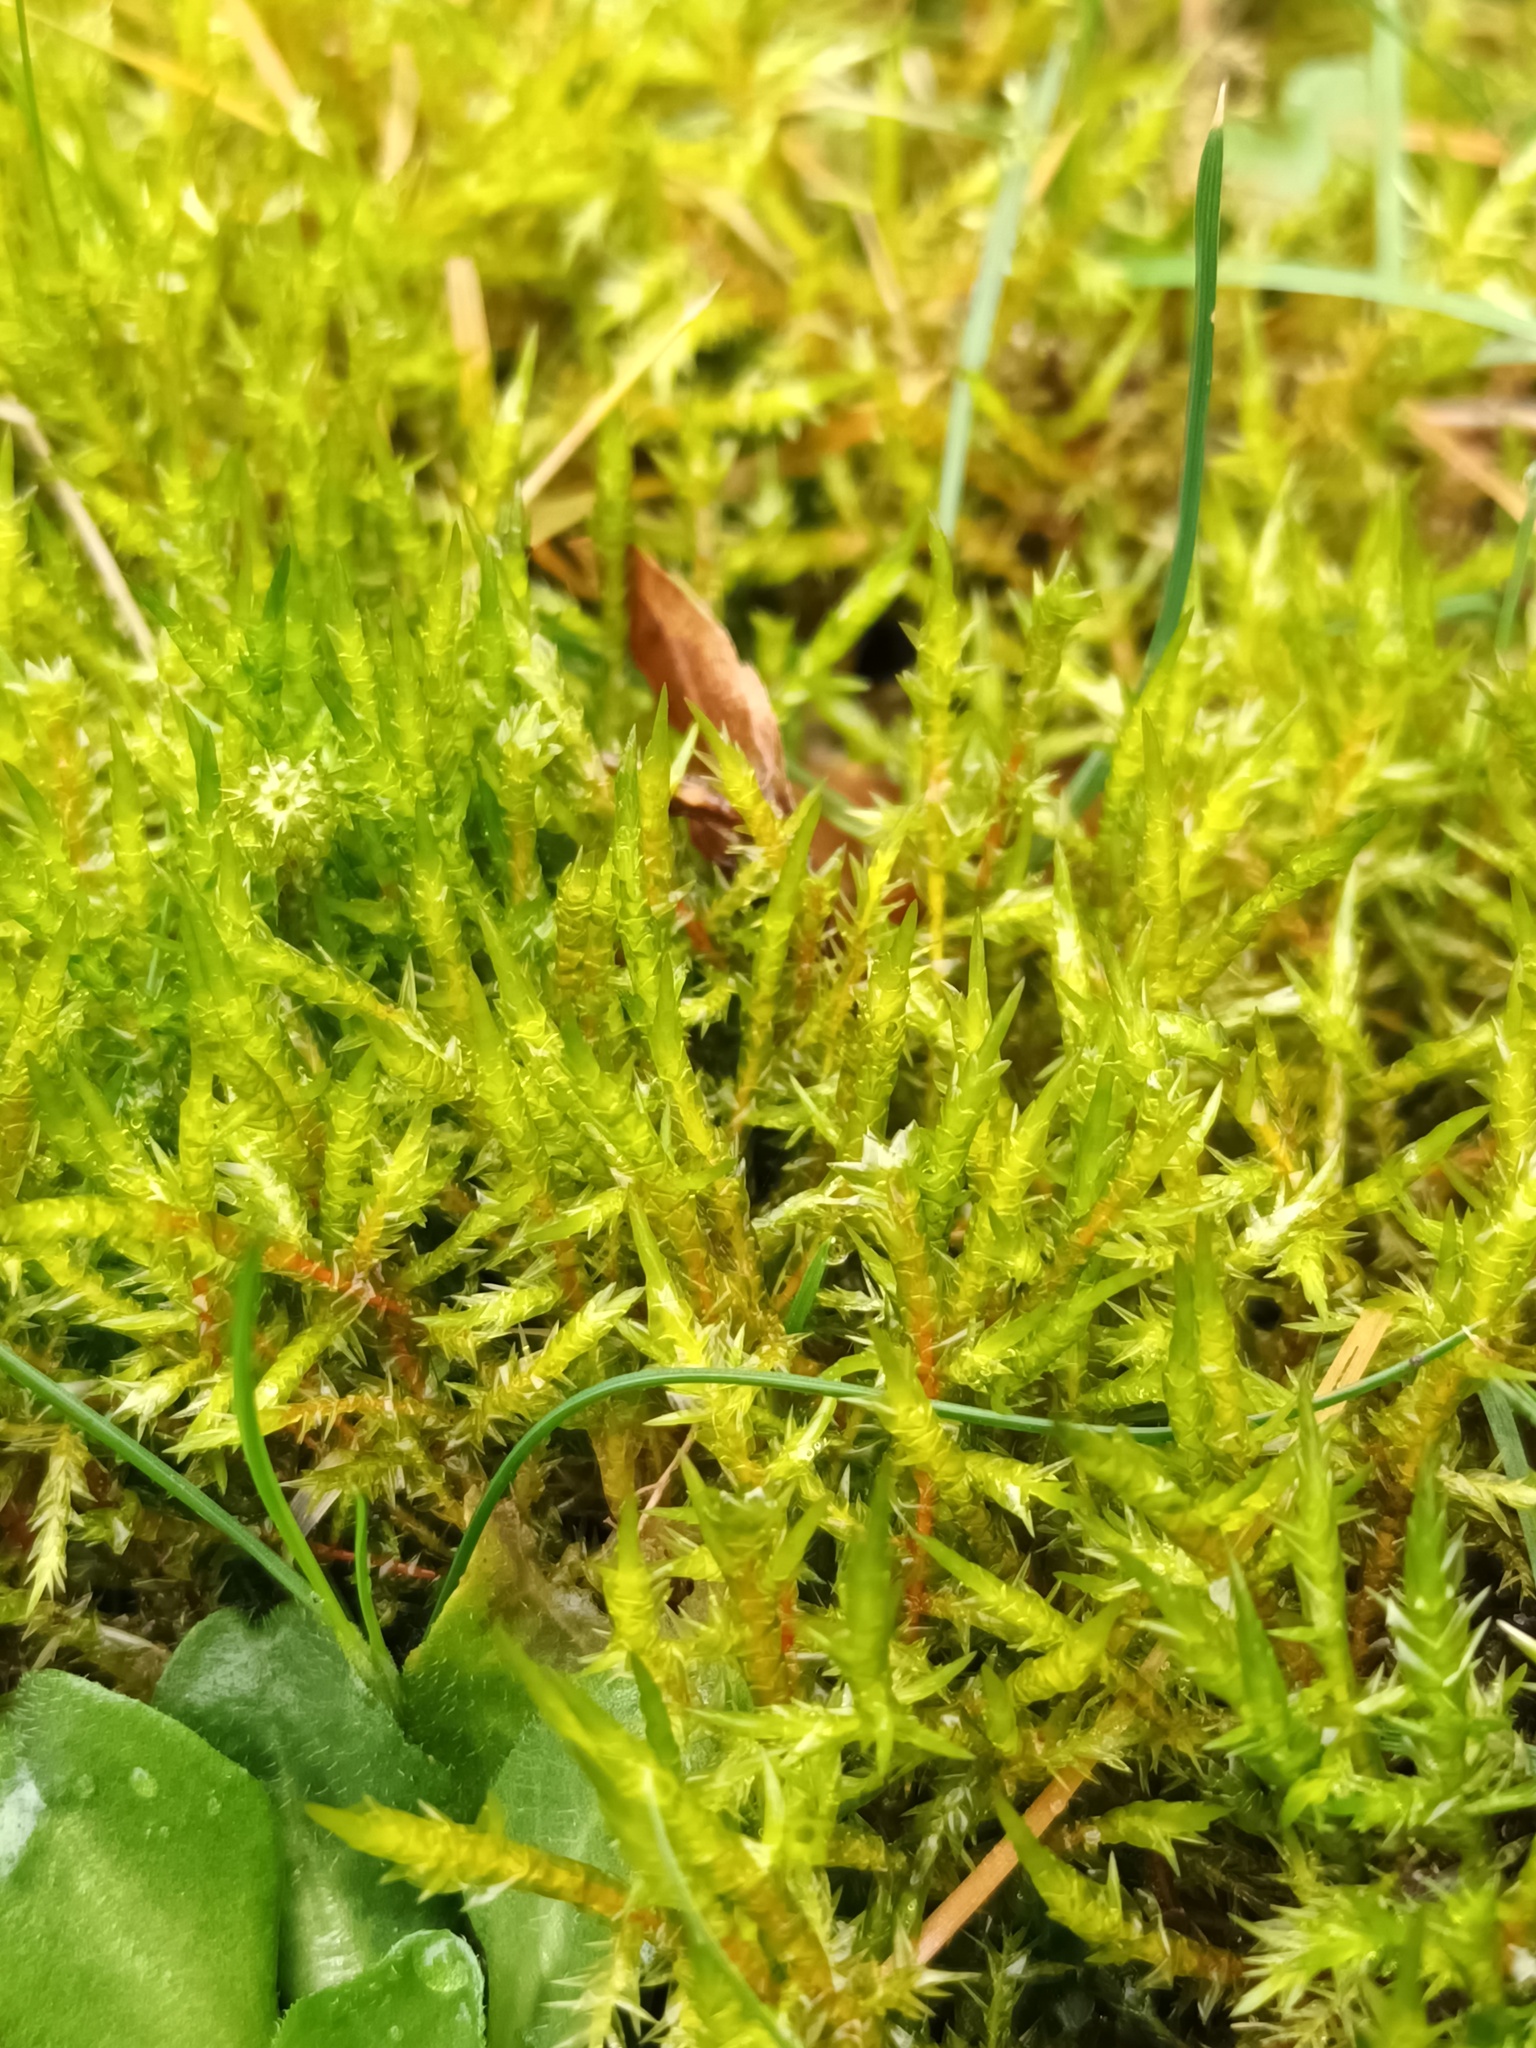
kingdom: Plantae
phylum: Bryophyta
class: Bryopsida
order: Hypnales
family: Pylaisiaceae
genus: Calliergonella
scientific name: Calliergonella cuspidata
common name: Common large wetland moss
